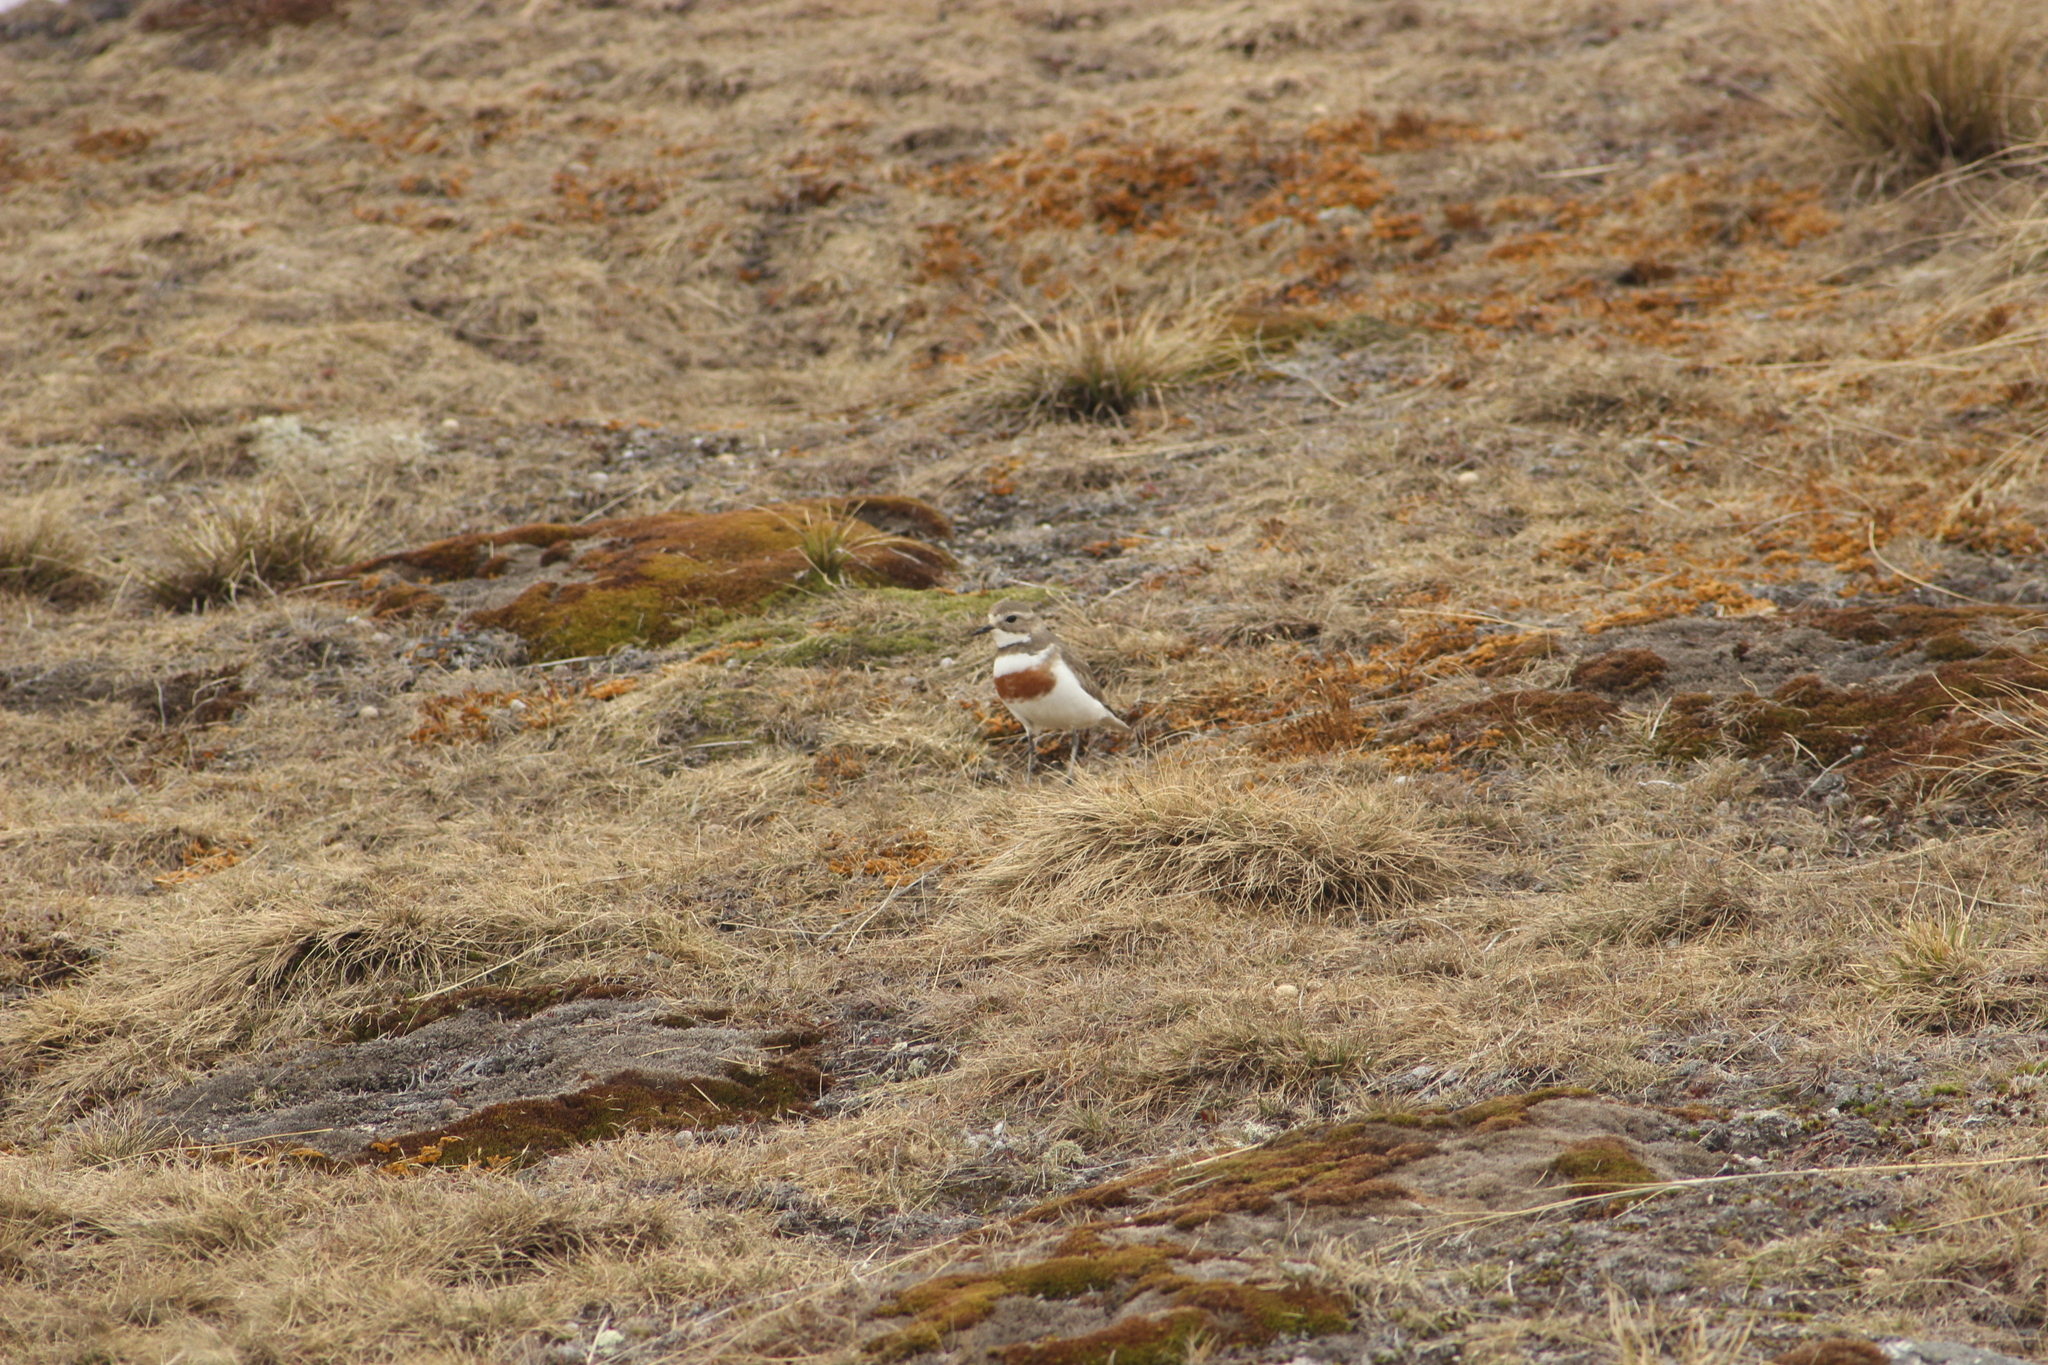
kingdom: Animalia
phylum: Chordata
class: Aves
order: Charadriiformes
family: Charadriidae
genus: Anarhynchus
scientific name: Anarhynchus
